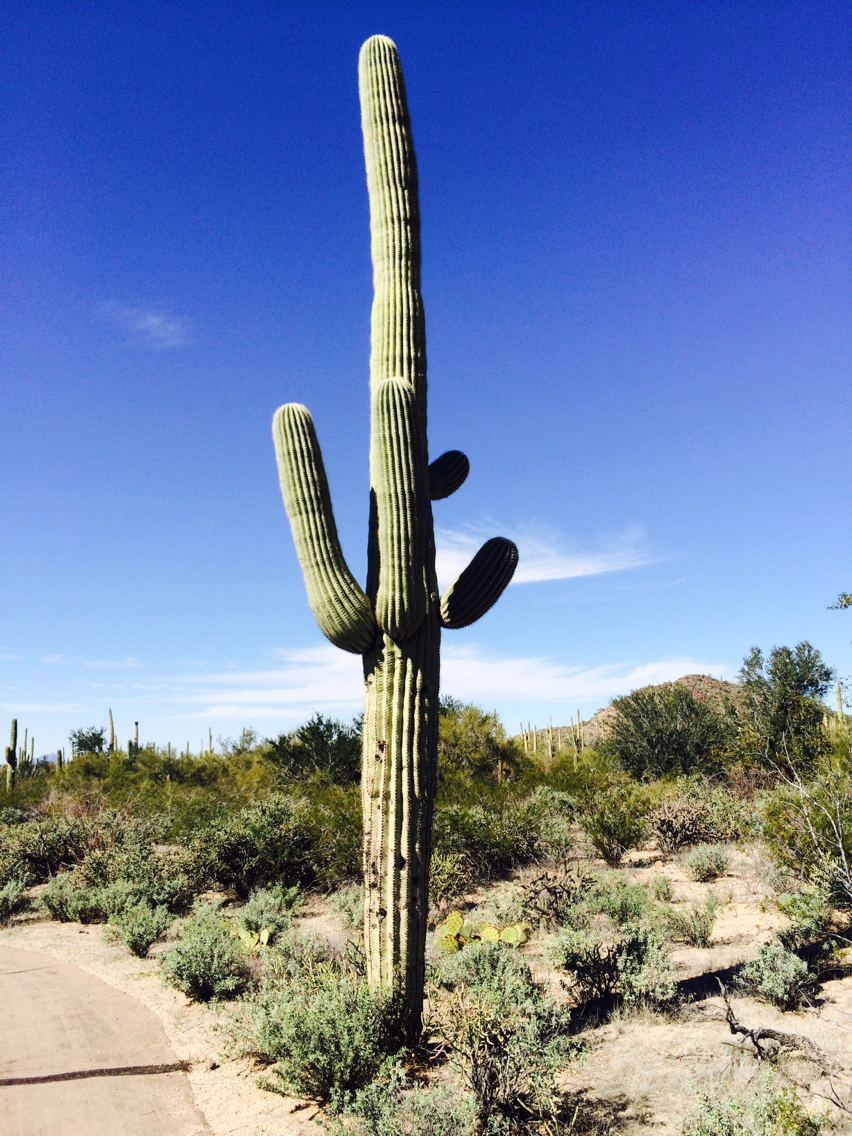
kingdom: Plantae
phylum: Tracheophyta
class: Magnoliopsida
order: Caryophyllales
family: Cactaceae
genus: Carnegiea
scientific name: Carnegiea gigantea
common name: Saguaro
